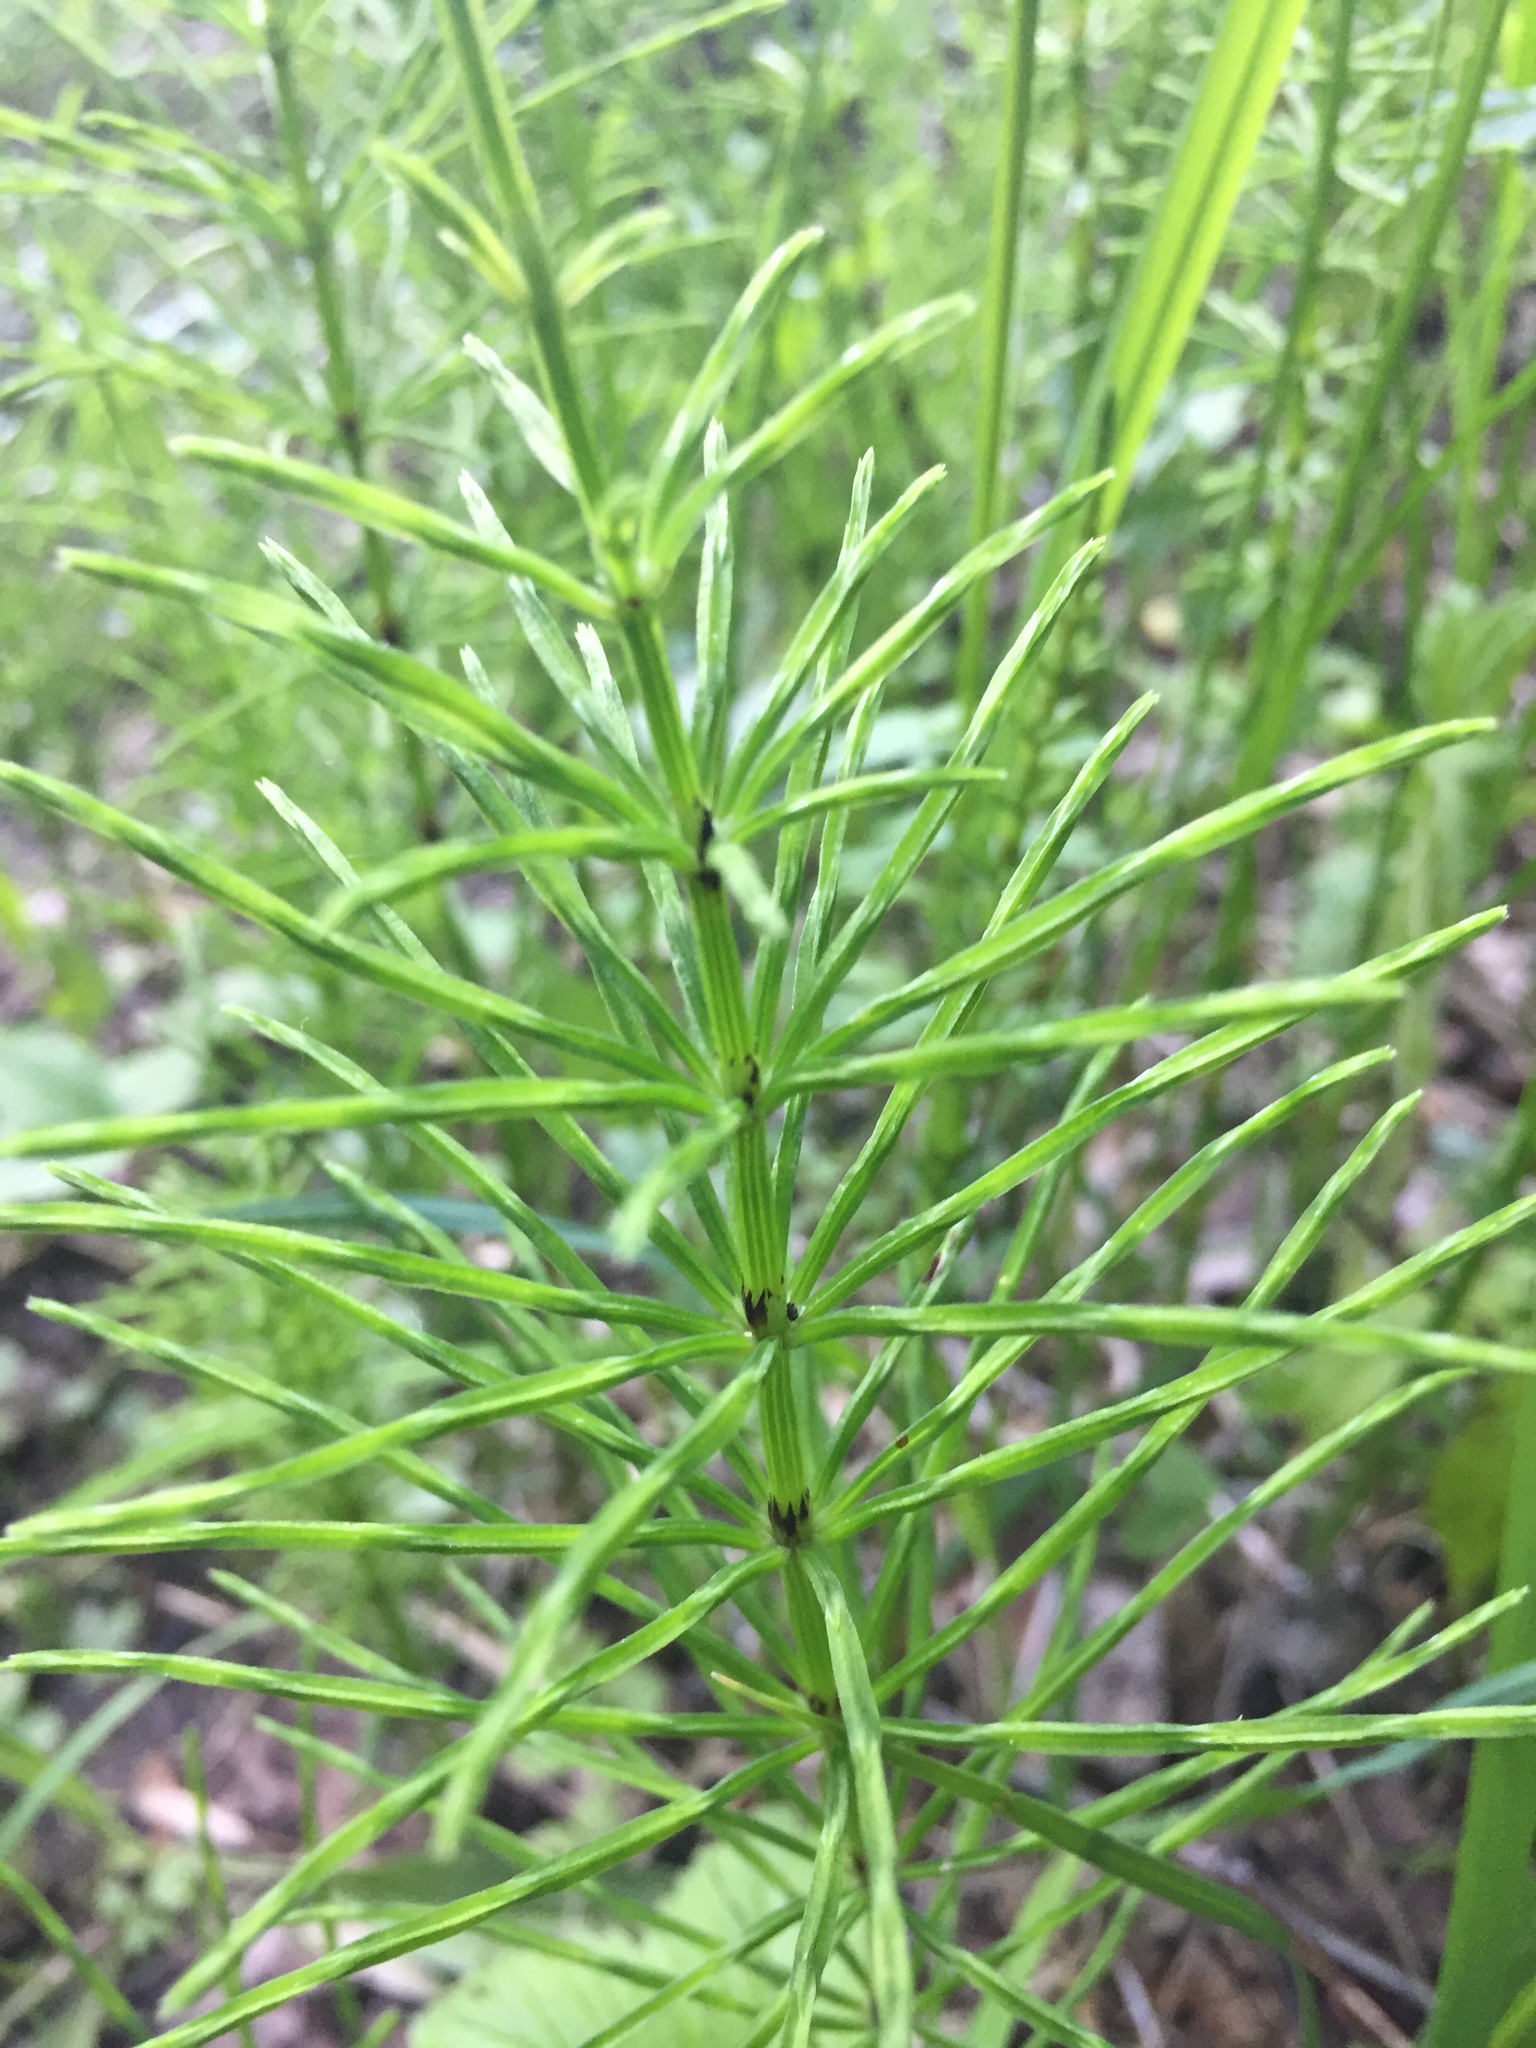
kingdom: Plantae
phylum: Tracheophyta
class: Polypodiopsida
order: Equisetales
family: Equisetaceae
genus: Equisetum
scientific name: Equisetum arvense
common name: Field horsetail
